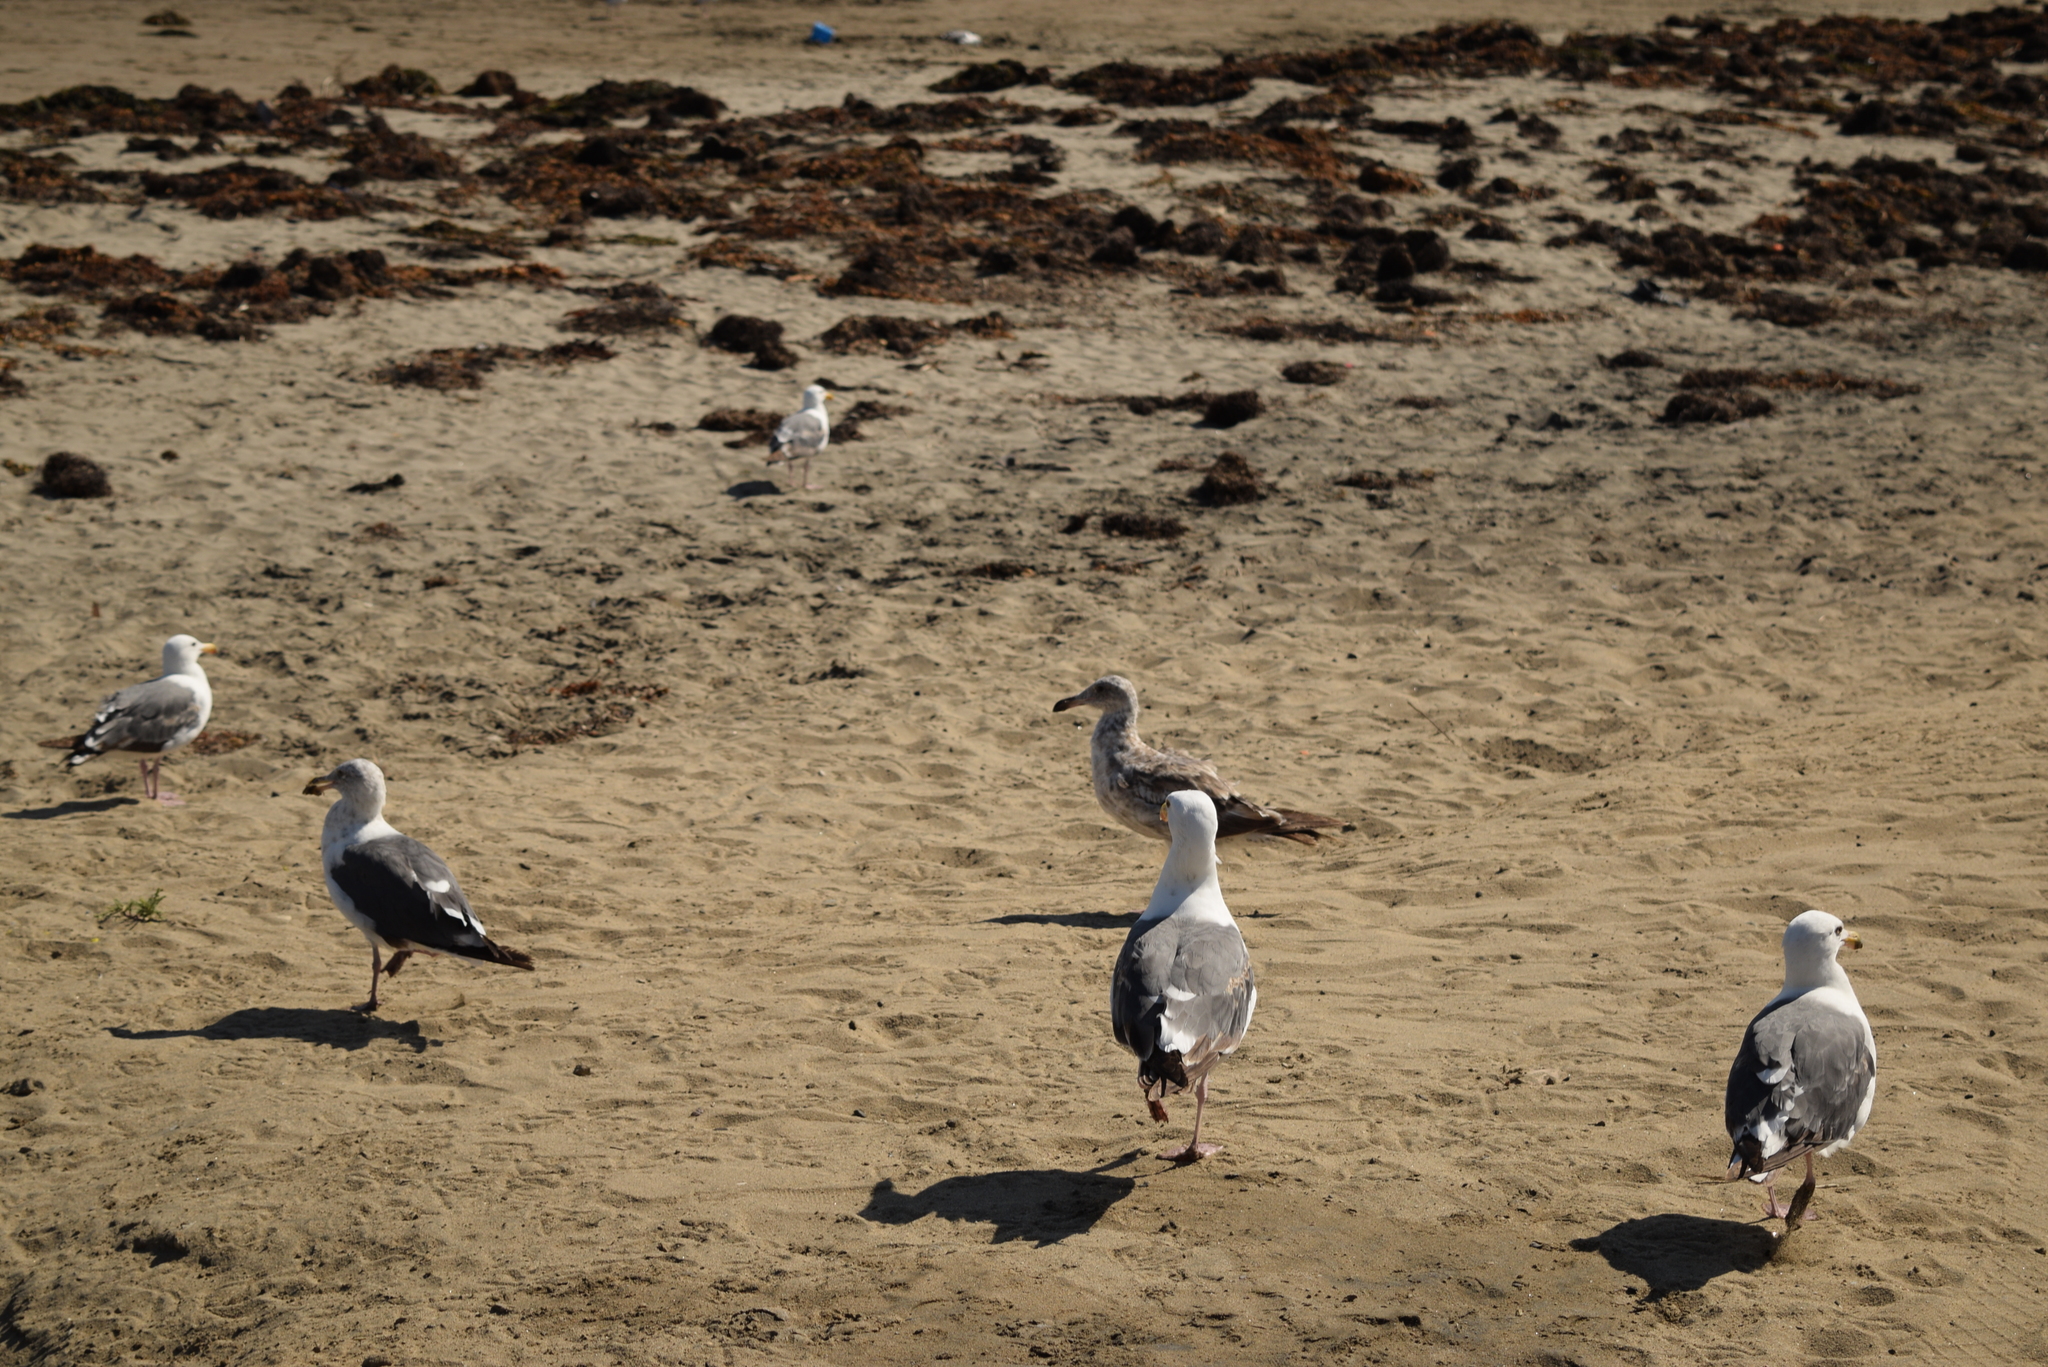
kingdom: Animalia
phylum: Chordata
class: Aves
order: Charadriiformes
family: Laridae
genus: Larus
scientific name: Larus occidentalis
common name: Western gull
